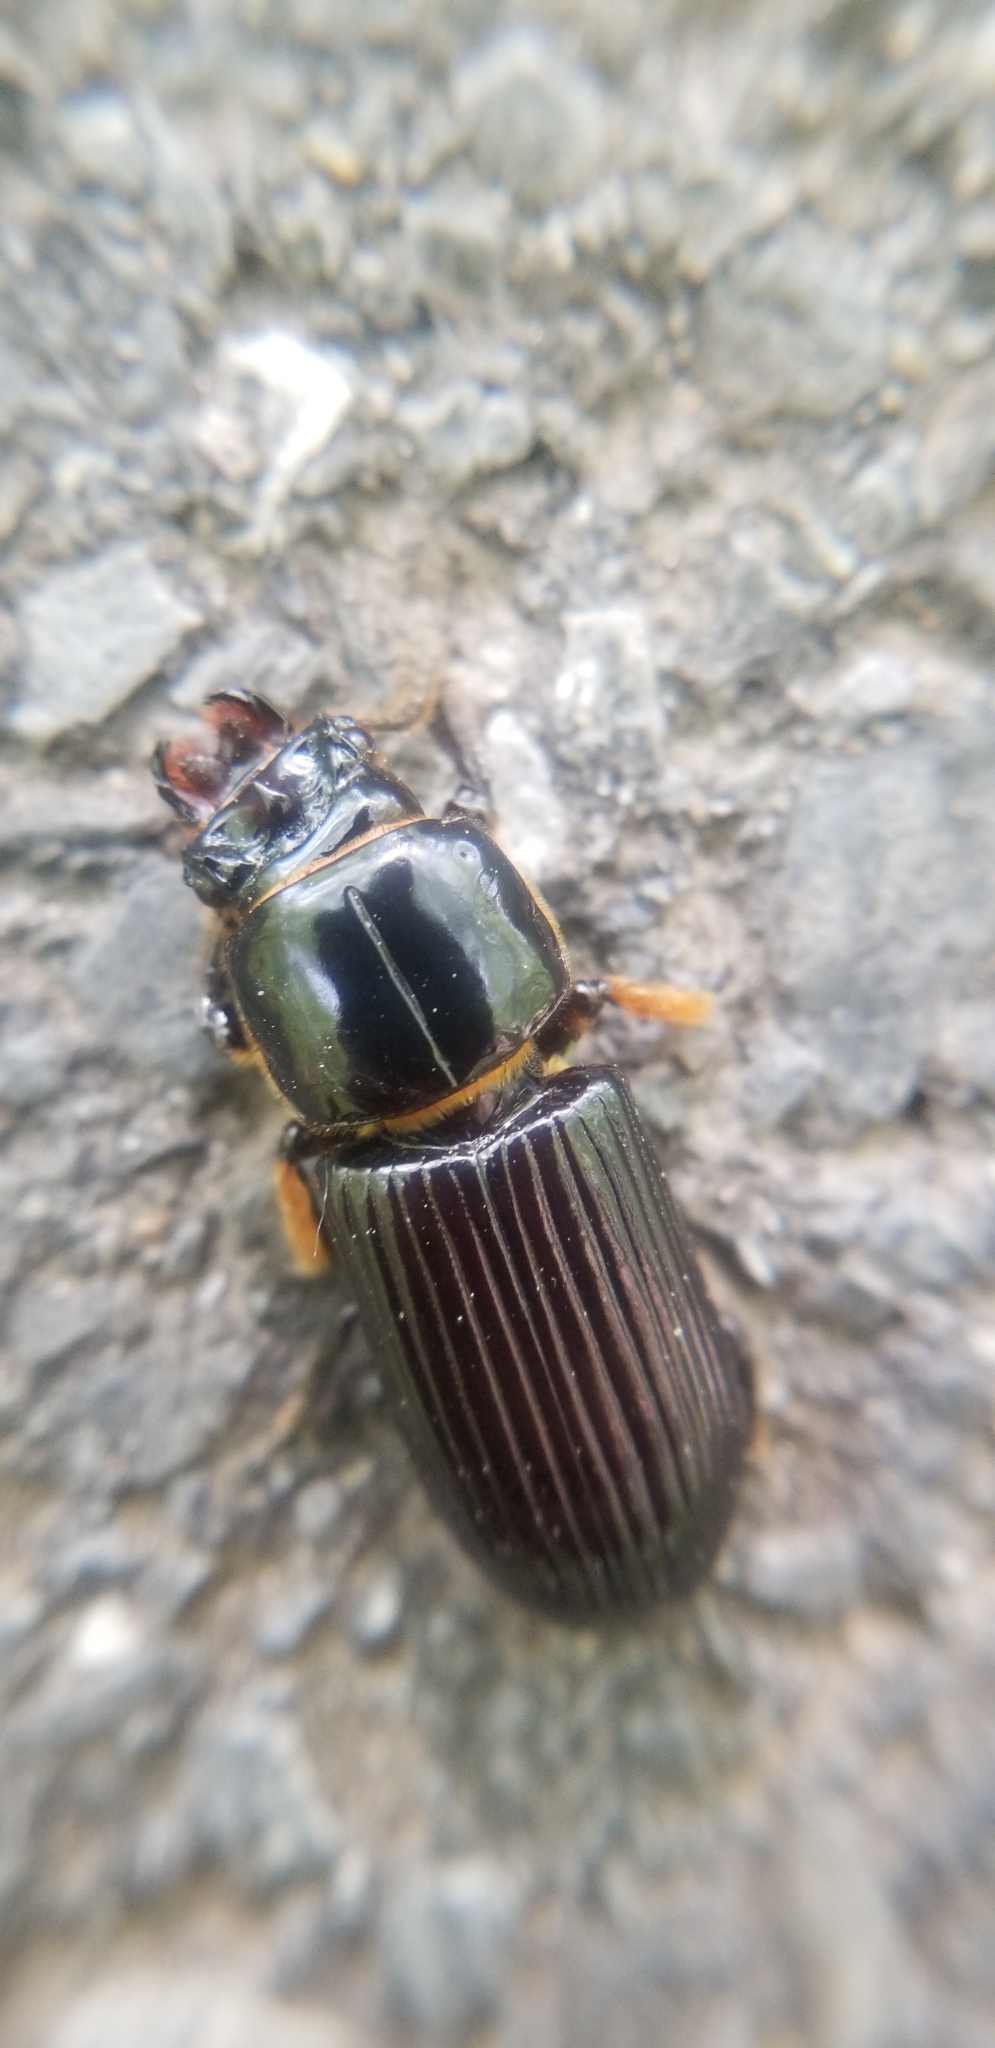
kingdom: Animalia
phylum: Arthropoda
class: Insecta
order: Coleoptera
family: Passalidae
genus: Odontotaenius
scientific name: Odontotaenius disjunctus
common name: Patent leather beetle
